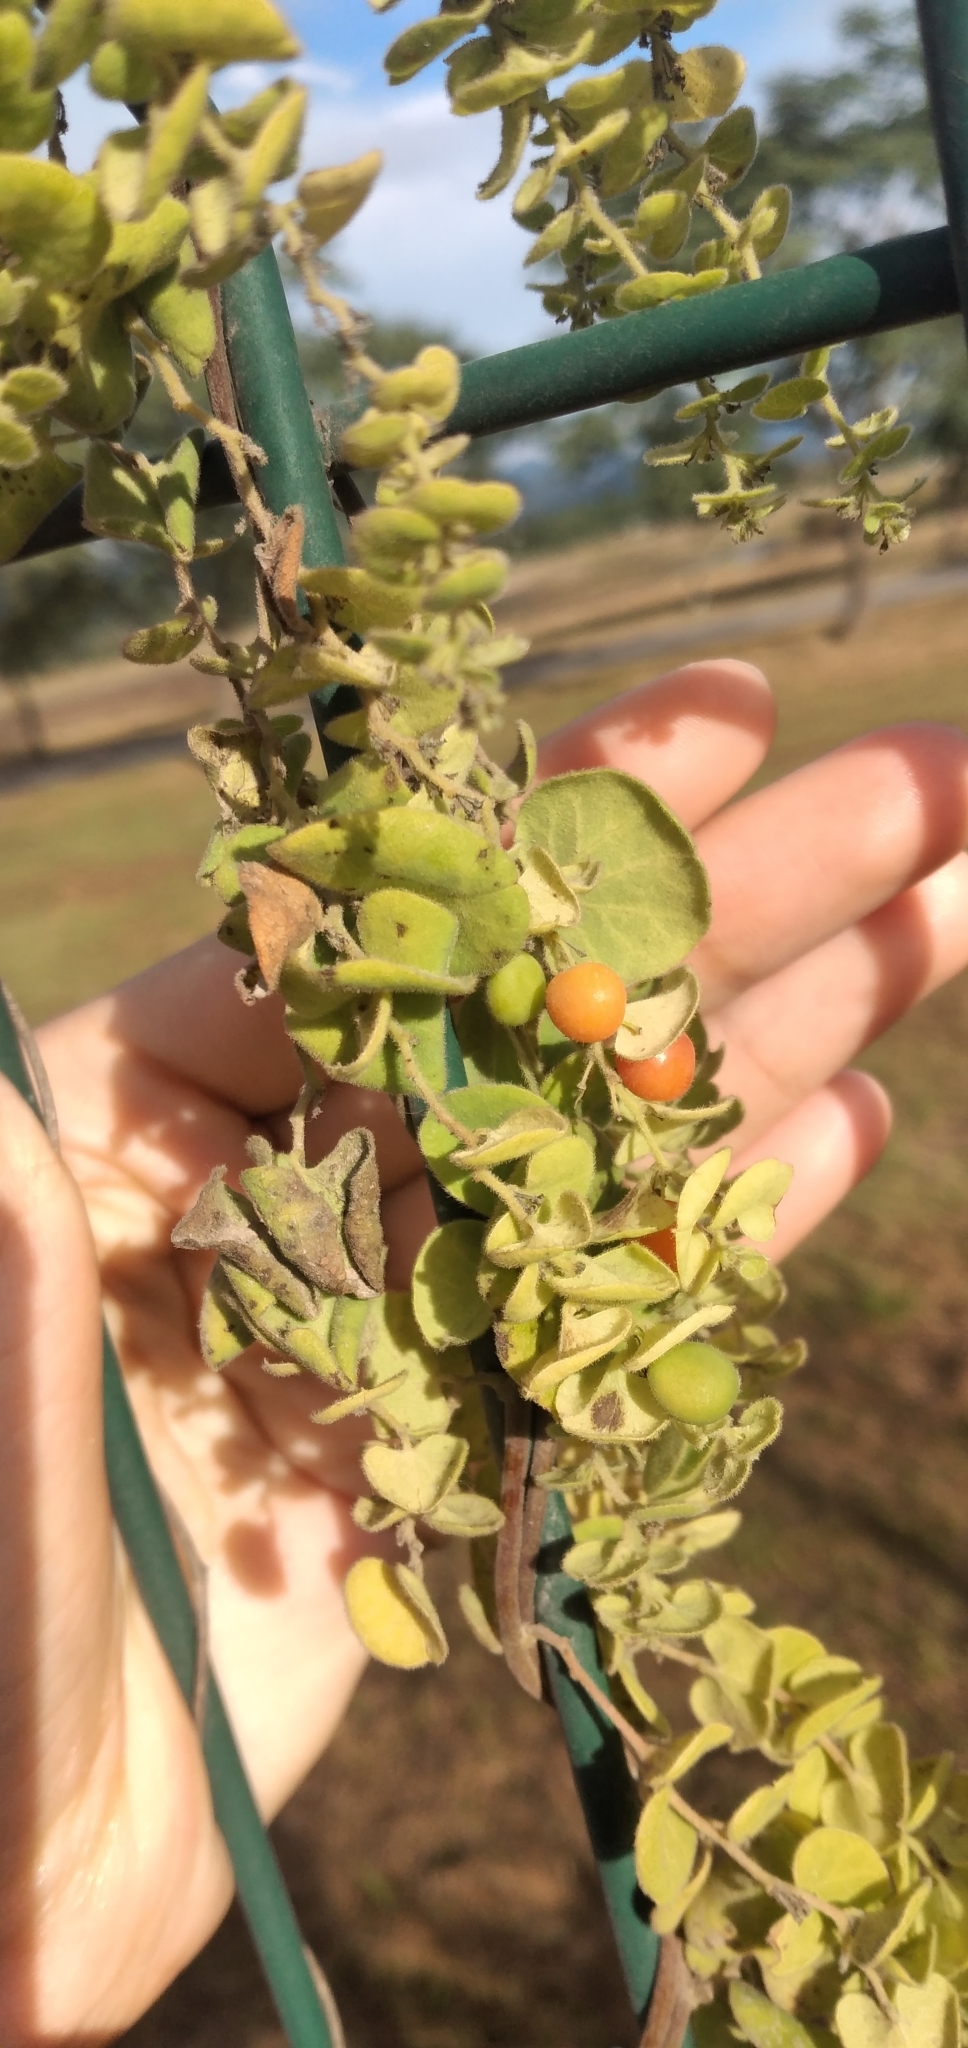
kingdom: Plantae
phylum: Tracheophyta
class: Magnoliopsida
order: Ranunculales
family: Menispermaceae
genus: Cissampelos
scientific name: Cissampelos pareira
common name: Velvetleaf
